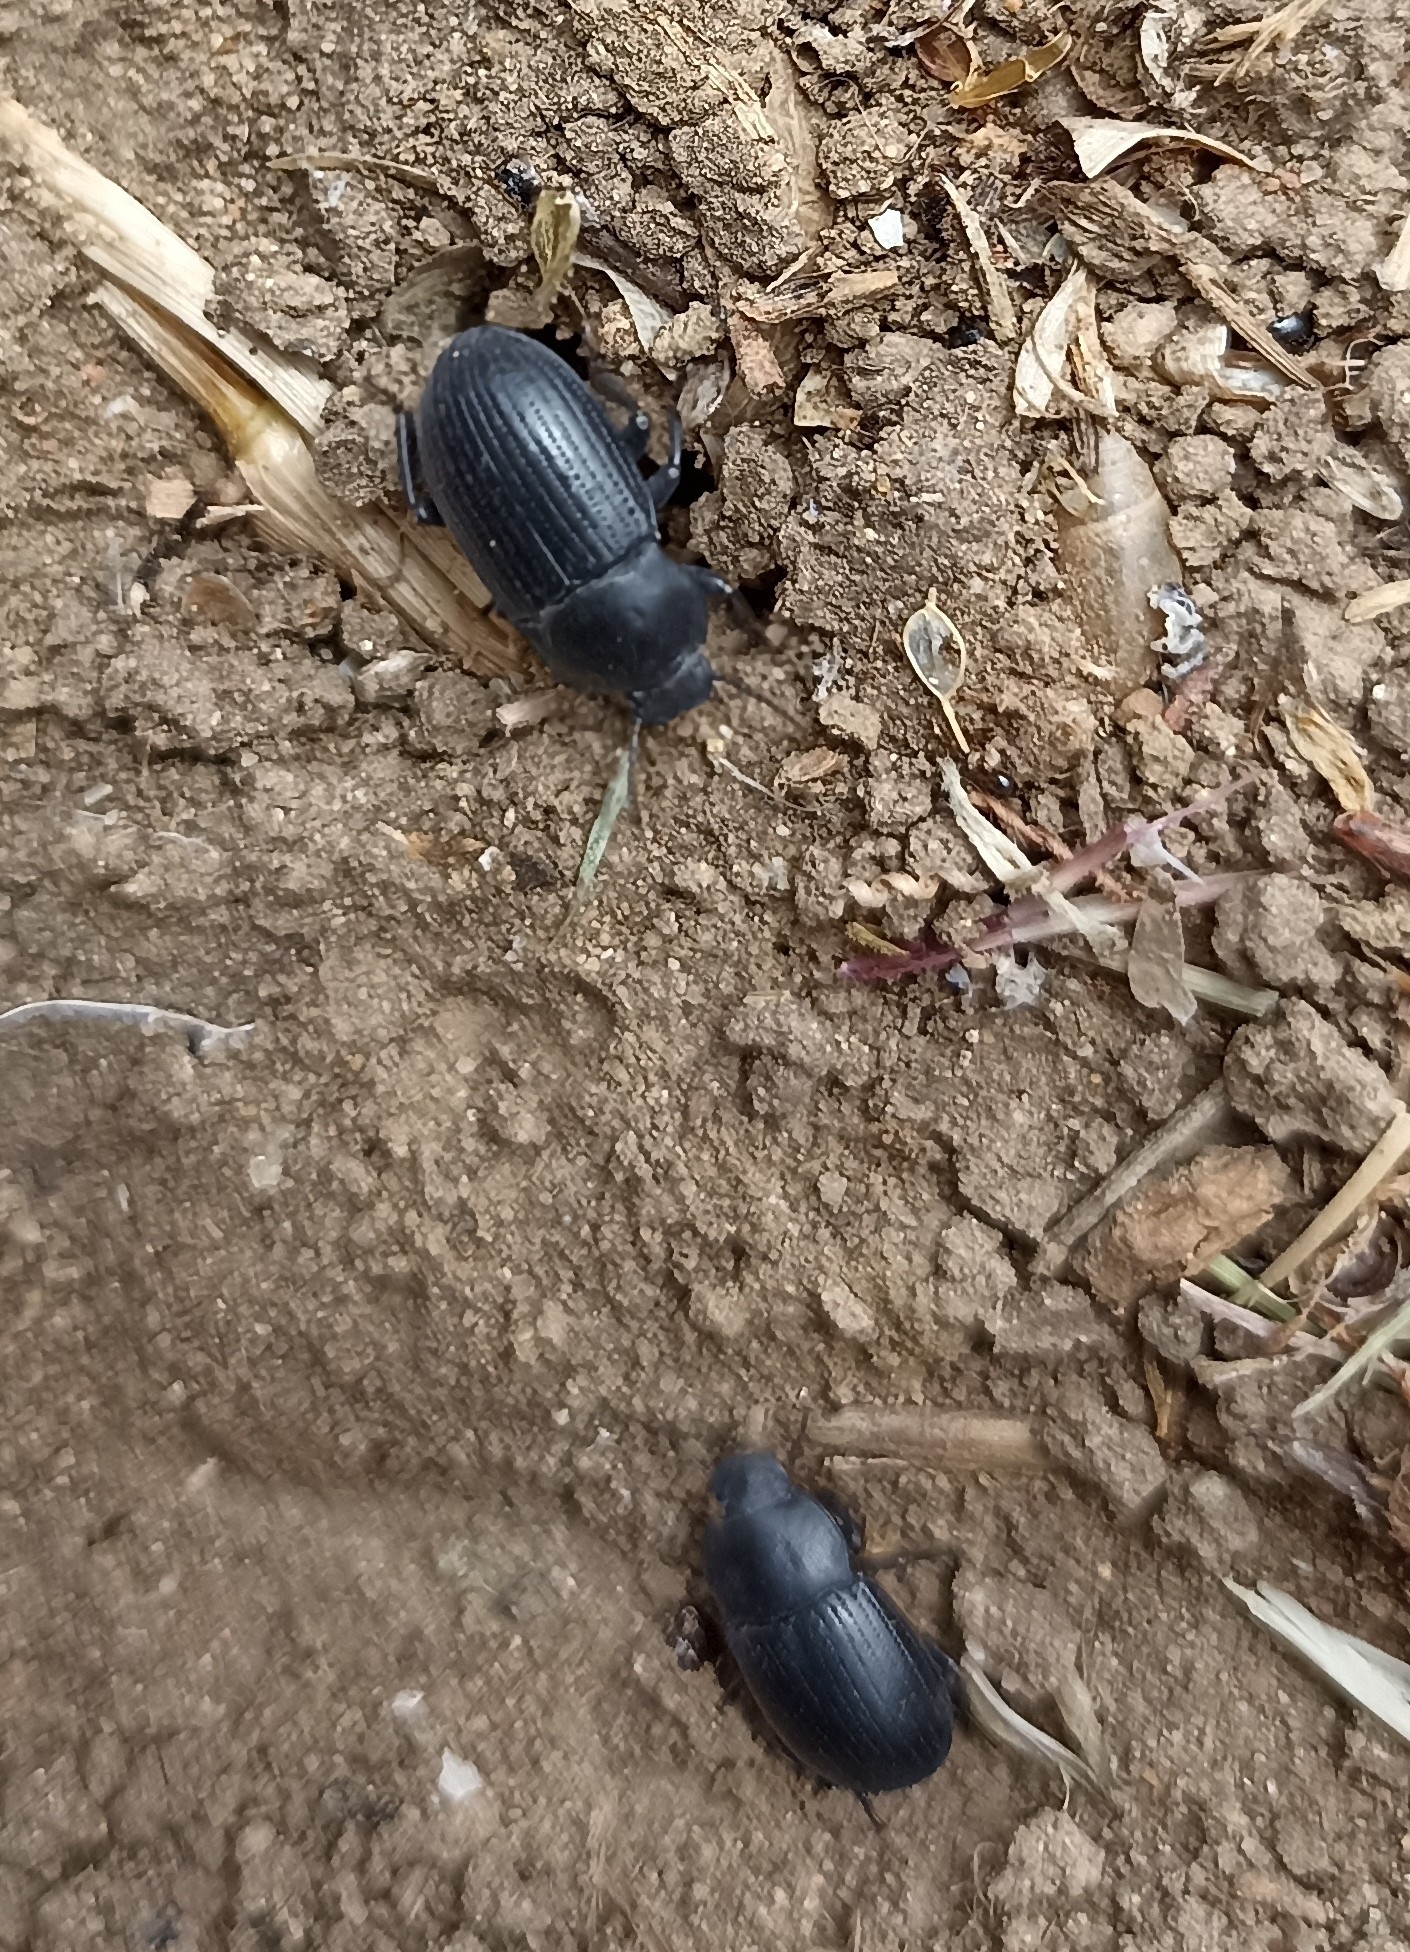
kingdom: Animalia
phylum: Arthropoda
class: Insecta
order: Coleoptera
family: Tenebrionidae
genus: Bioplanes
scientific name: Bioplanes meridionalis
